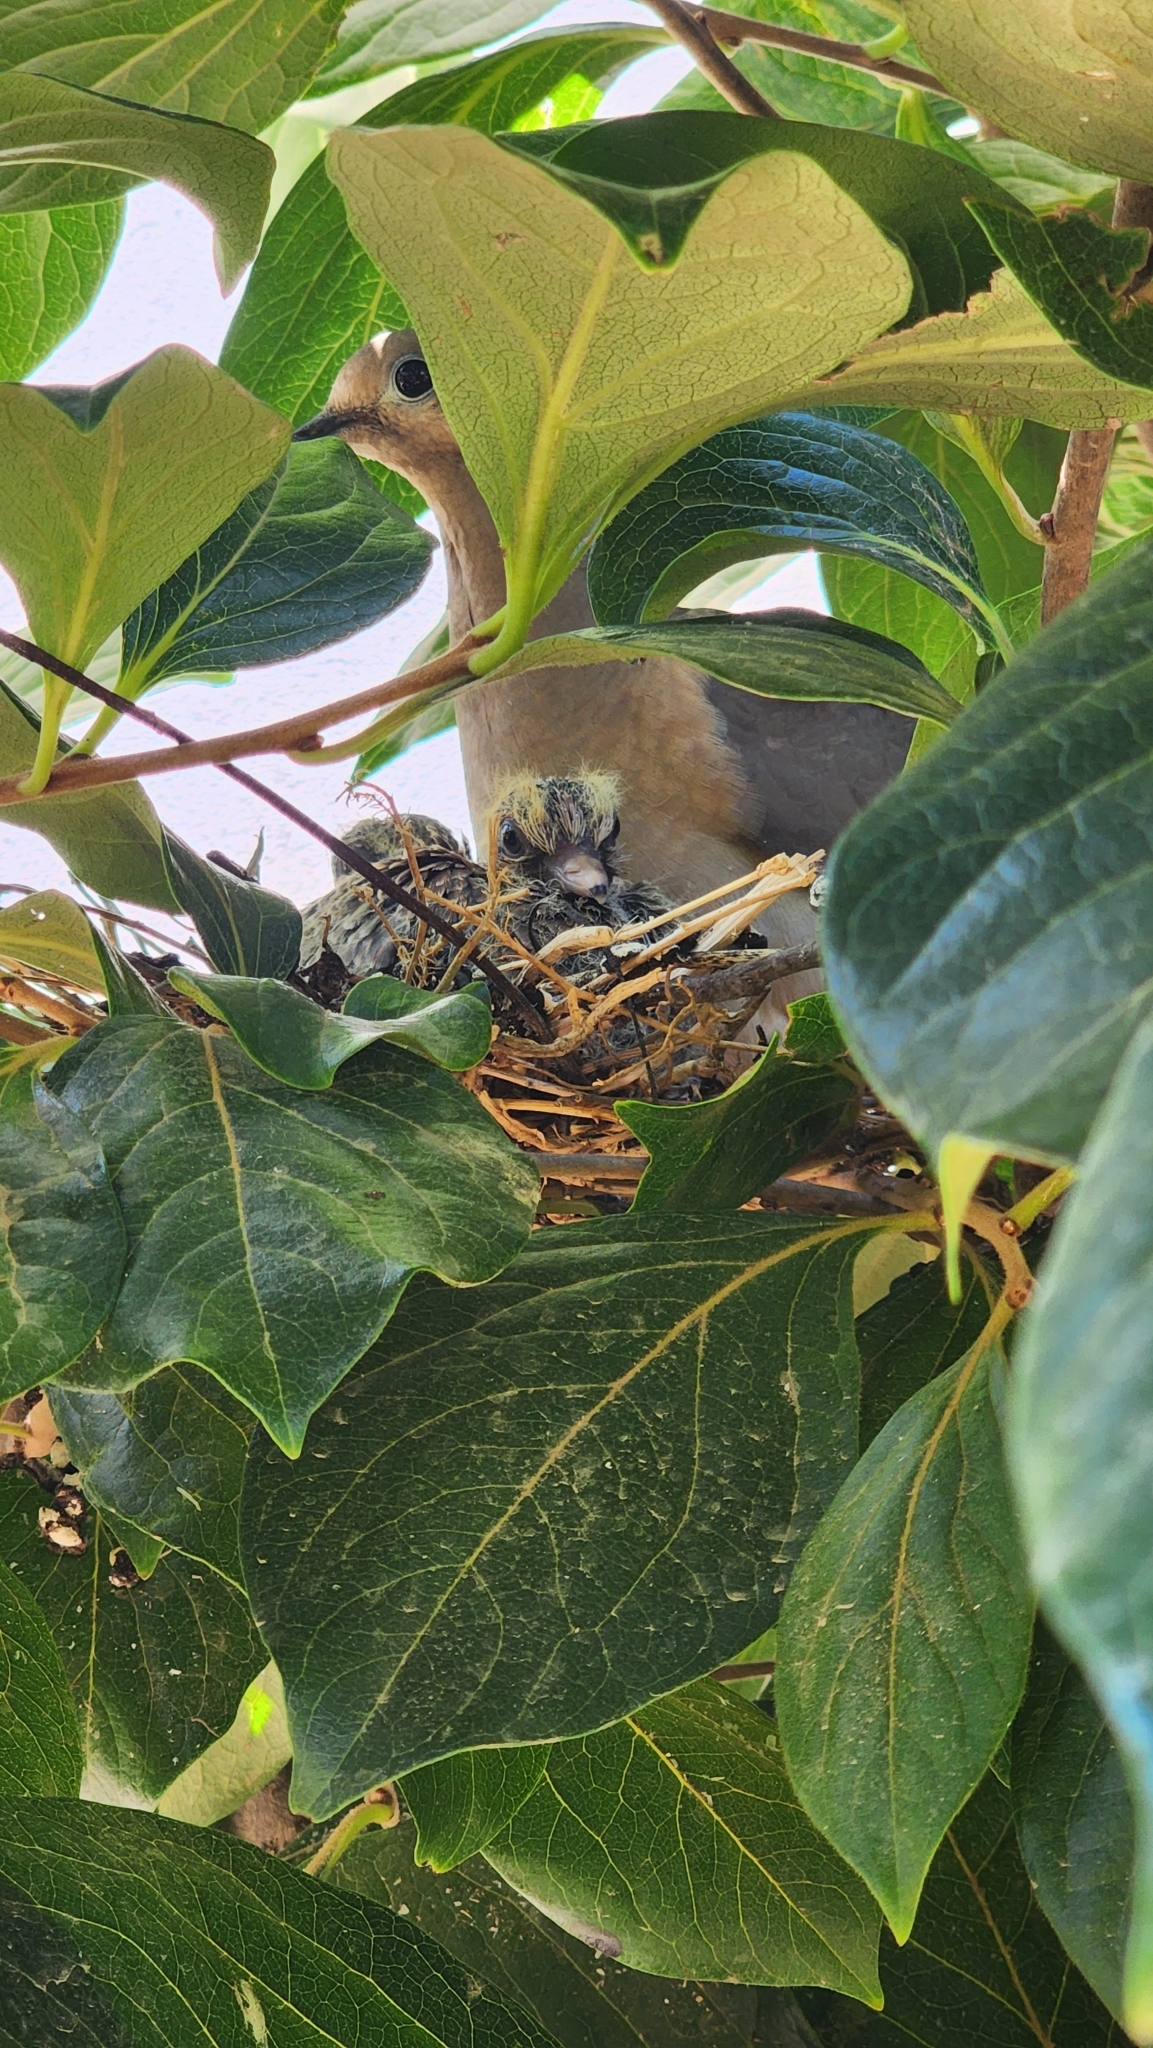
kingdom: Animalia
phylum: Chordata
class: Aves
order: Columbiformes
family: Columbidae
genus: Zenaida
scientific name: Zenaida auriculata
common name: Eared dove
